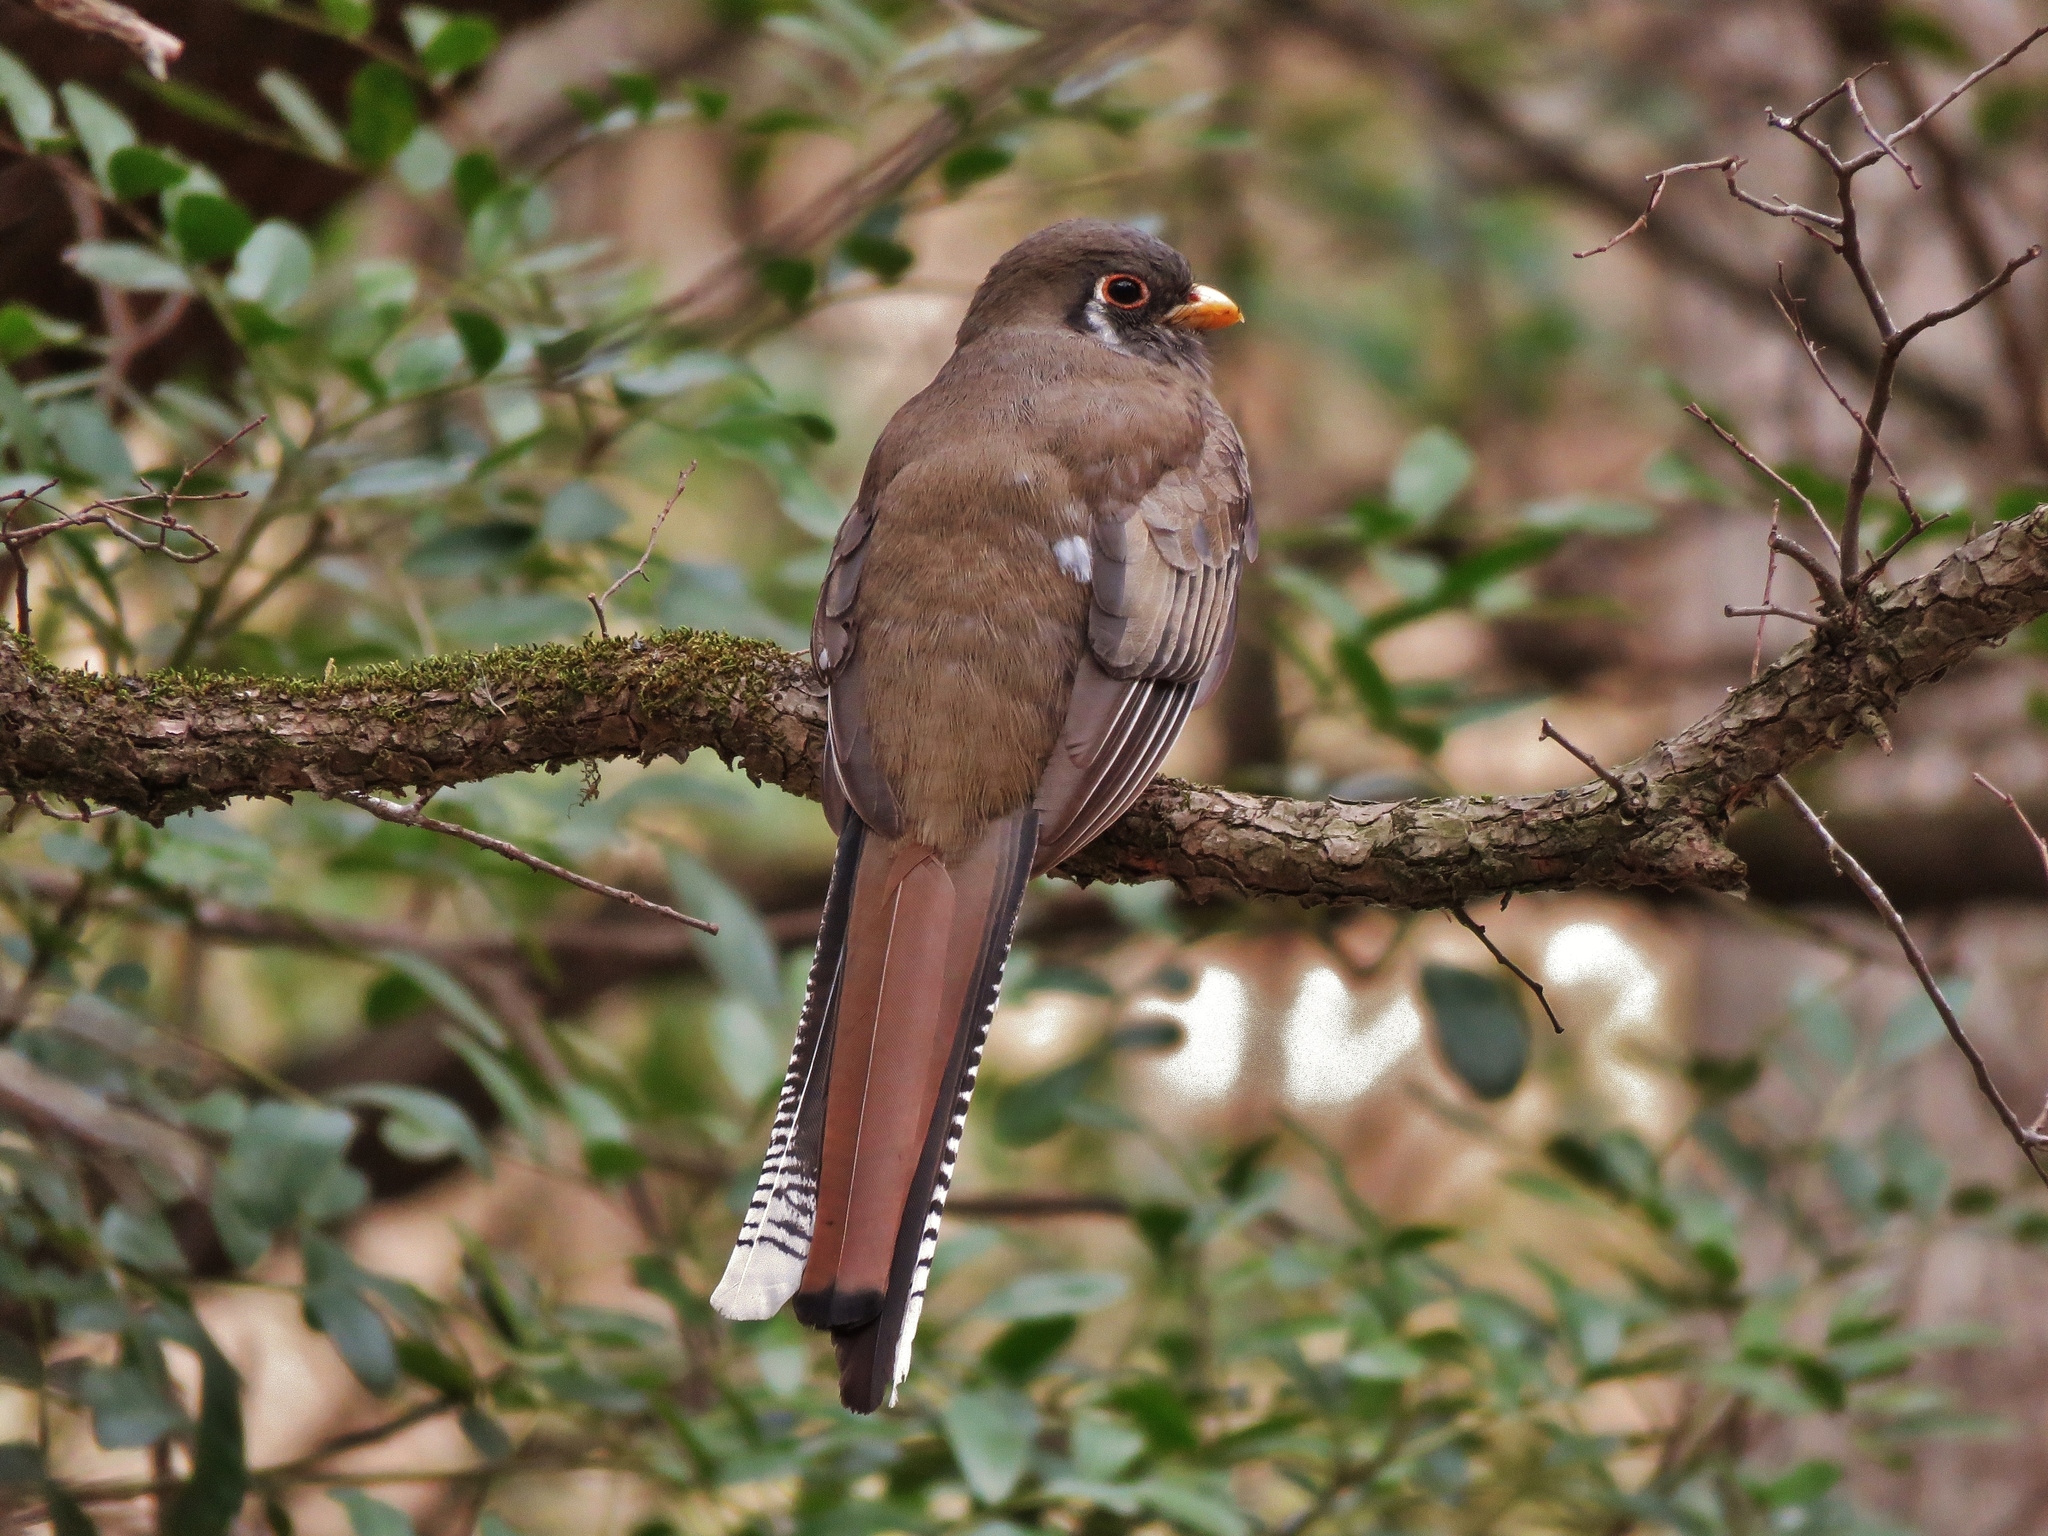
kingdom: Animalia
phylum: Chordata
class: Aves
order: Trogoniformes
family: Trogonidae
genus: Trogon
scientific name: Trogon elegans
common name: Elegant trogon
